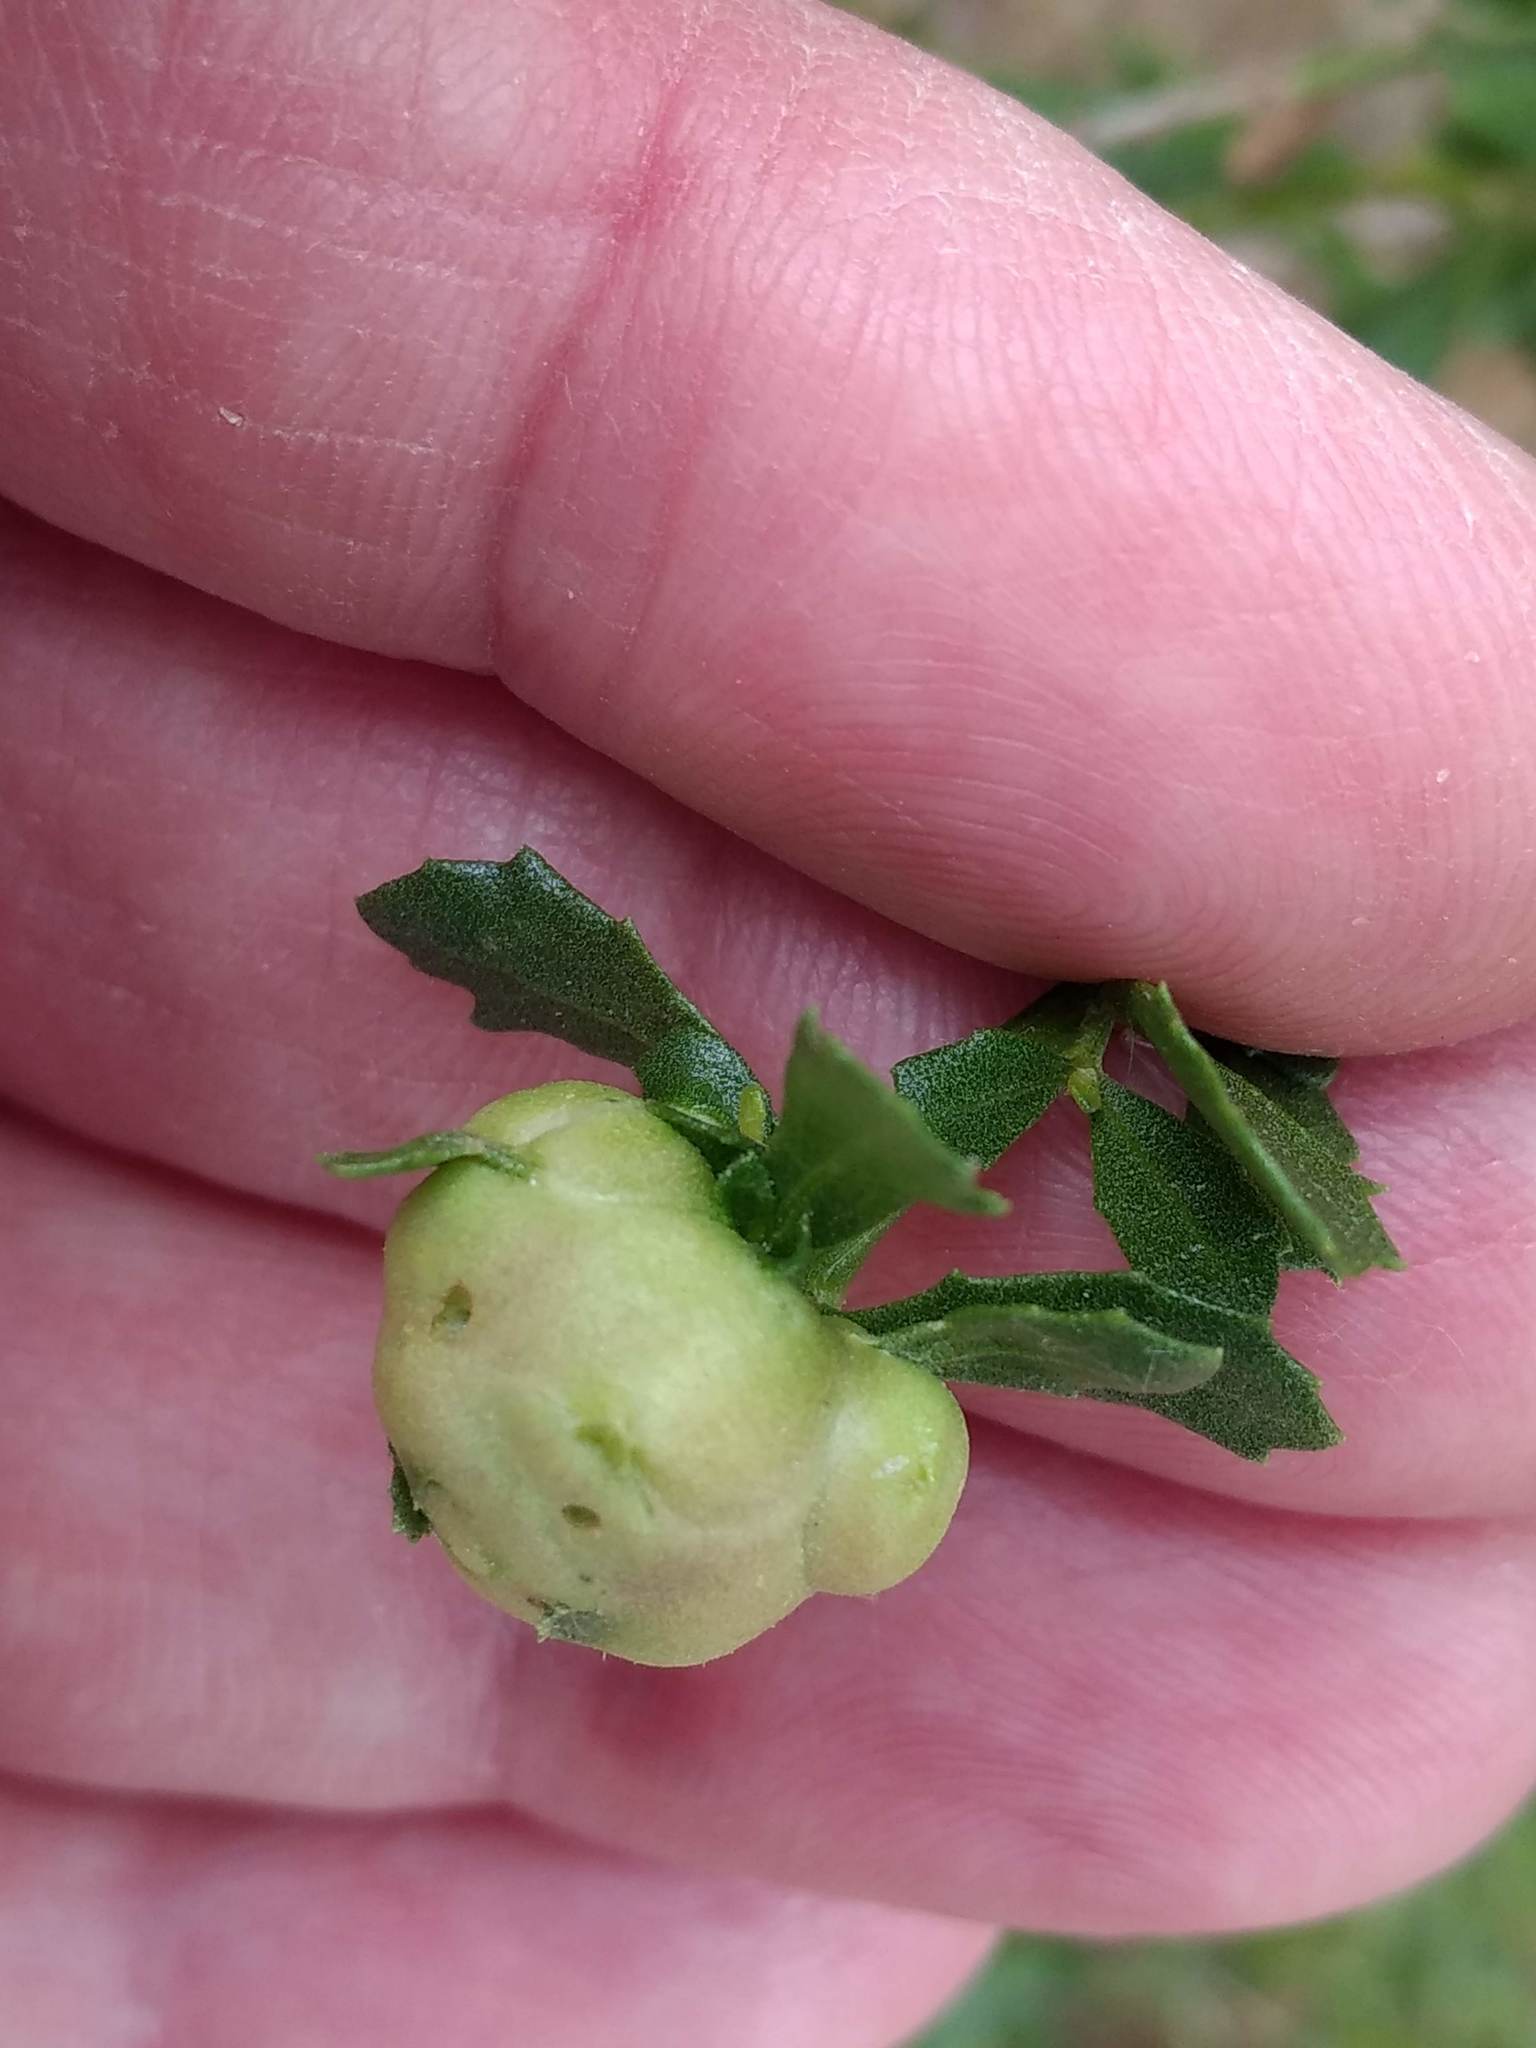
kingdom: Animalia
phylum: Arthropoda
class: Insecta
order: Diptera
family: Cecidomyiidae
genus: Rhopalomyia
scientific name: Rhopalomyia californica
